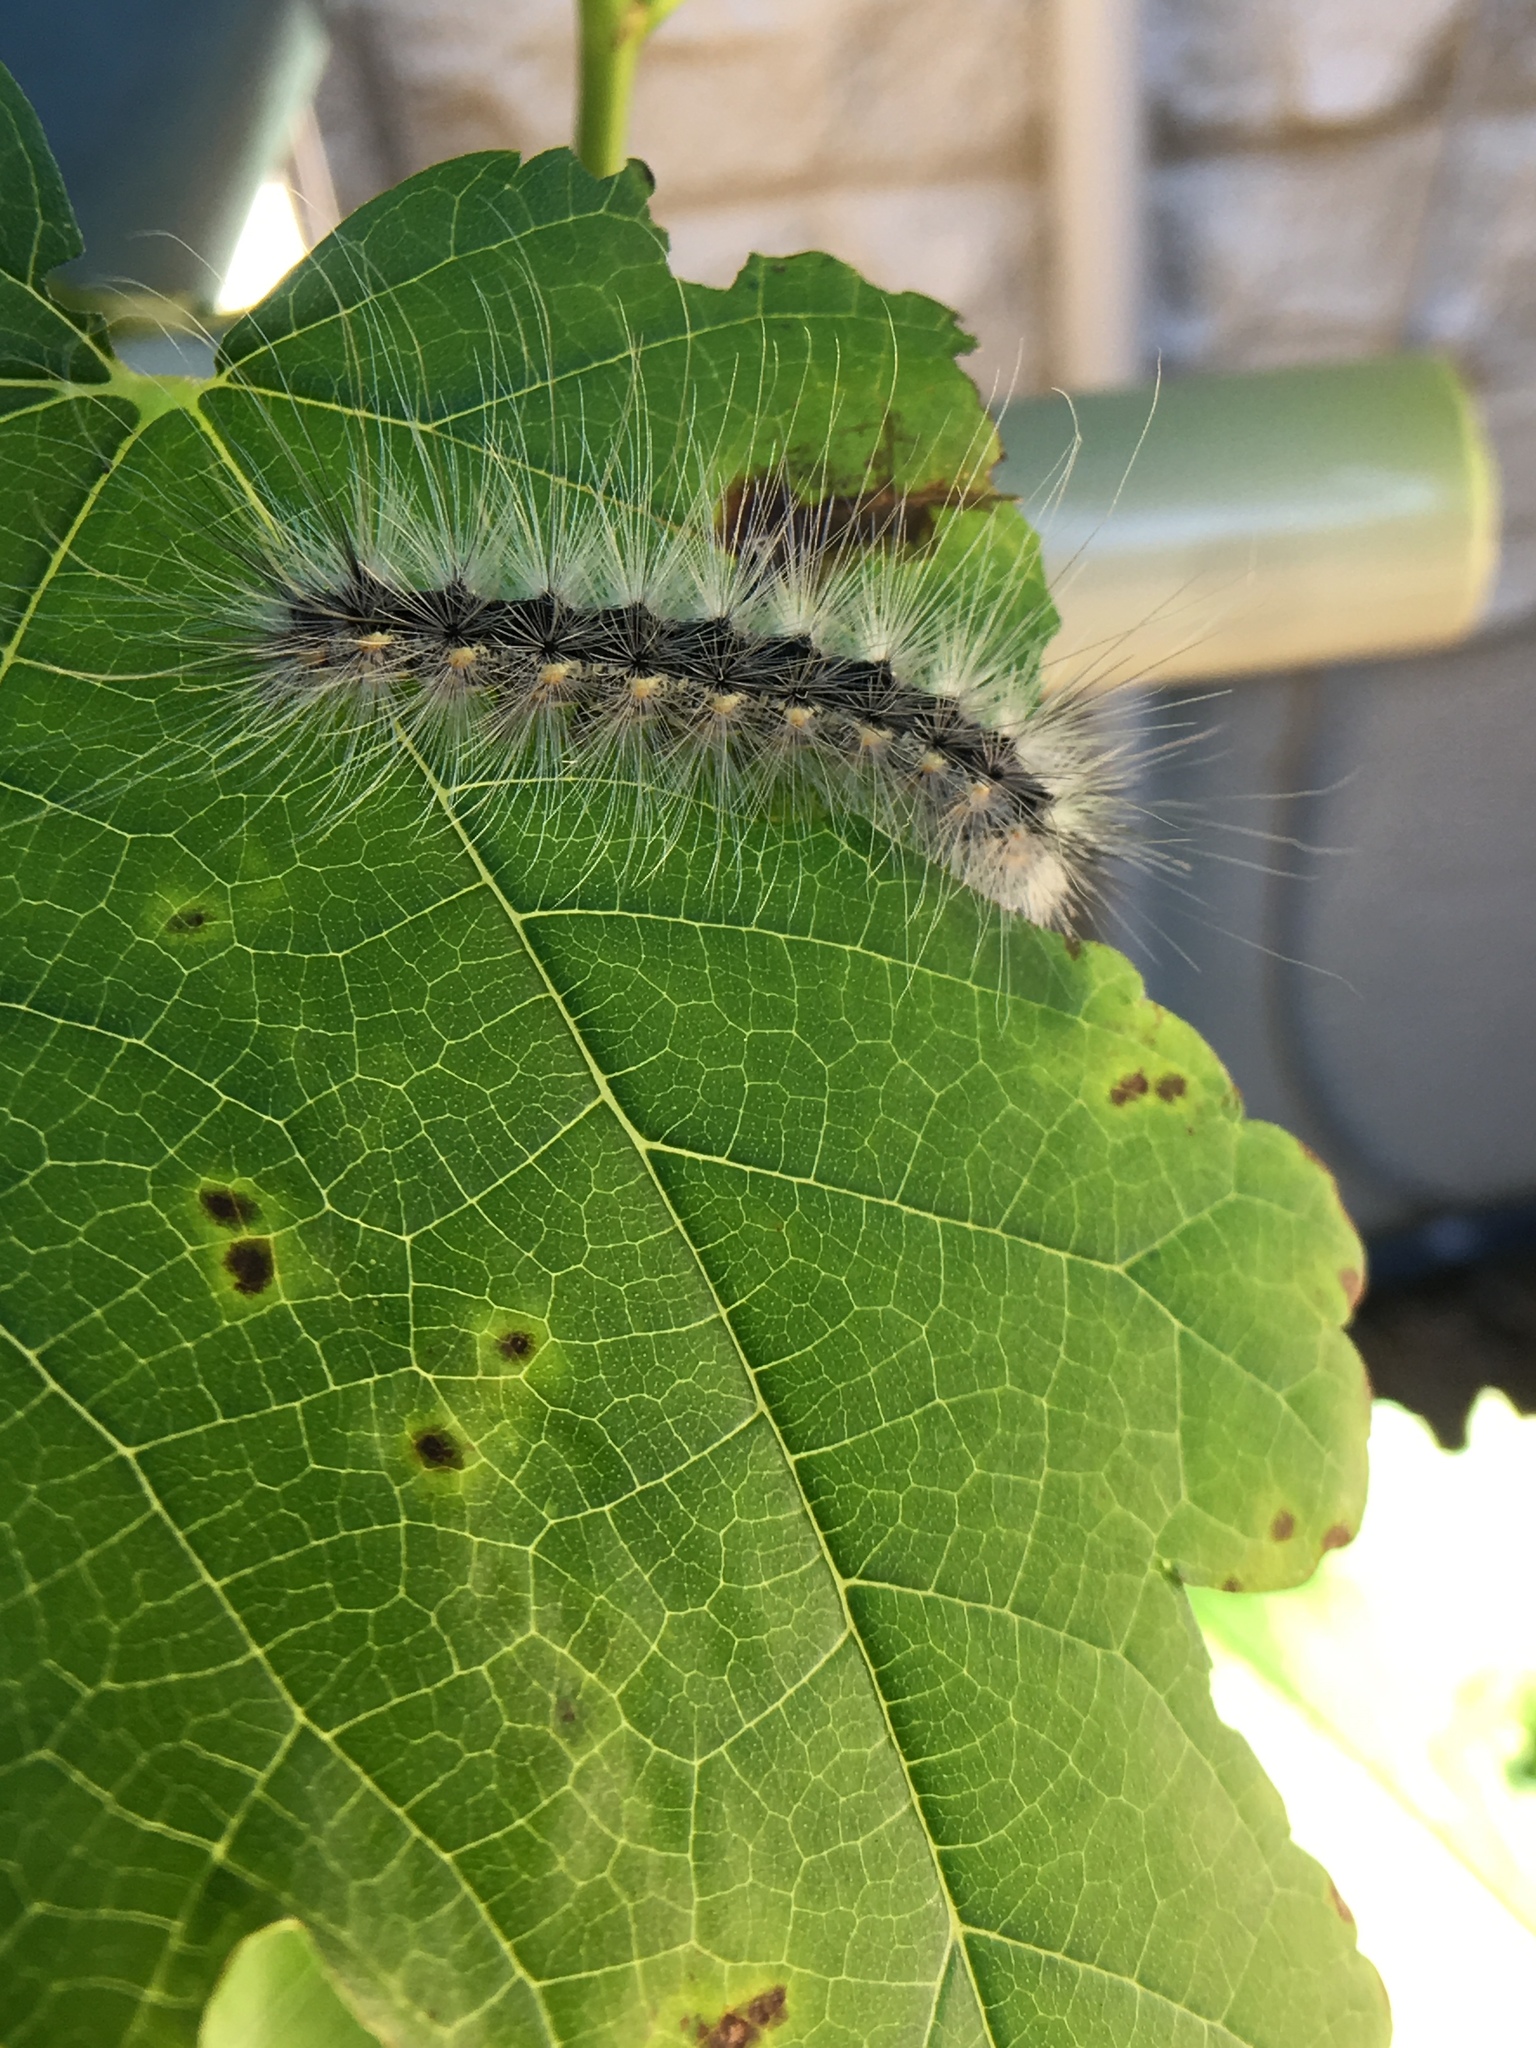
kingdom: Animalia
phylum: Arthropoda
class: Insecta
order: Lepidoptera
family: Erebidae
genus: Hyphantria
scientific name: Hyphantria cunea
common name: American white moth
